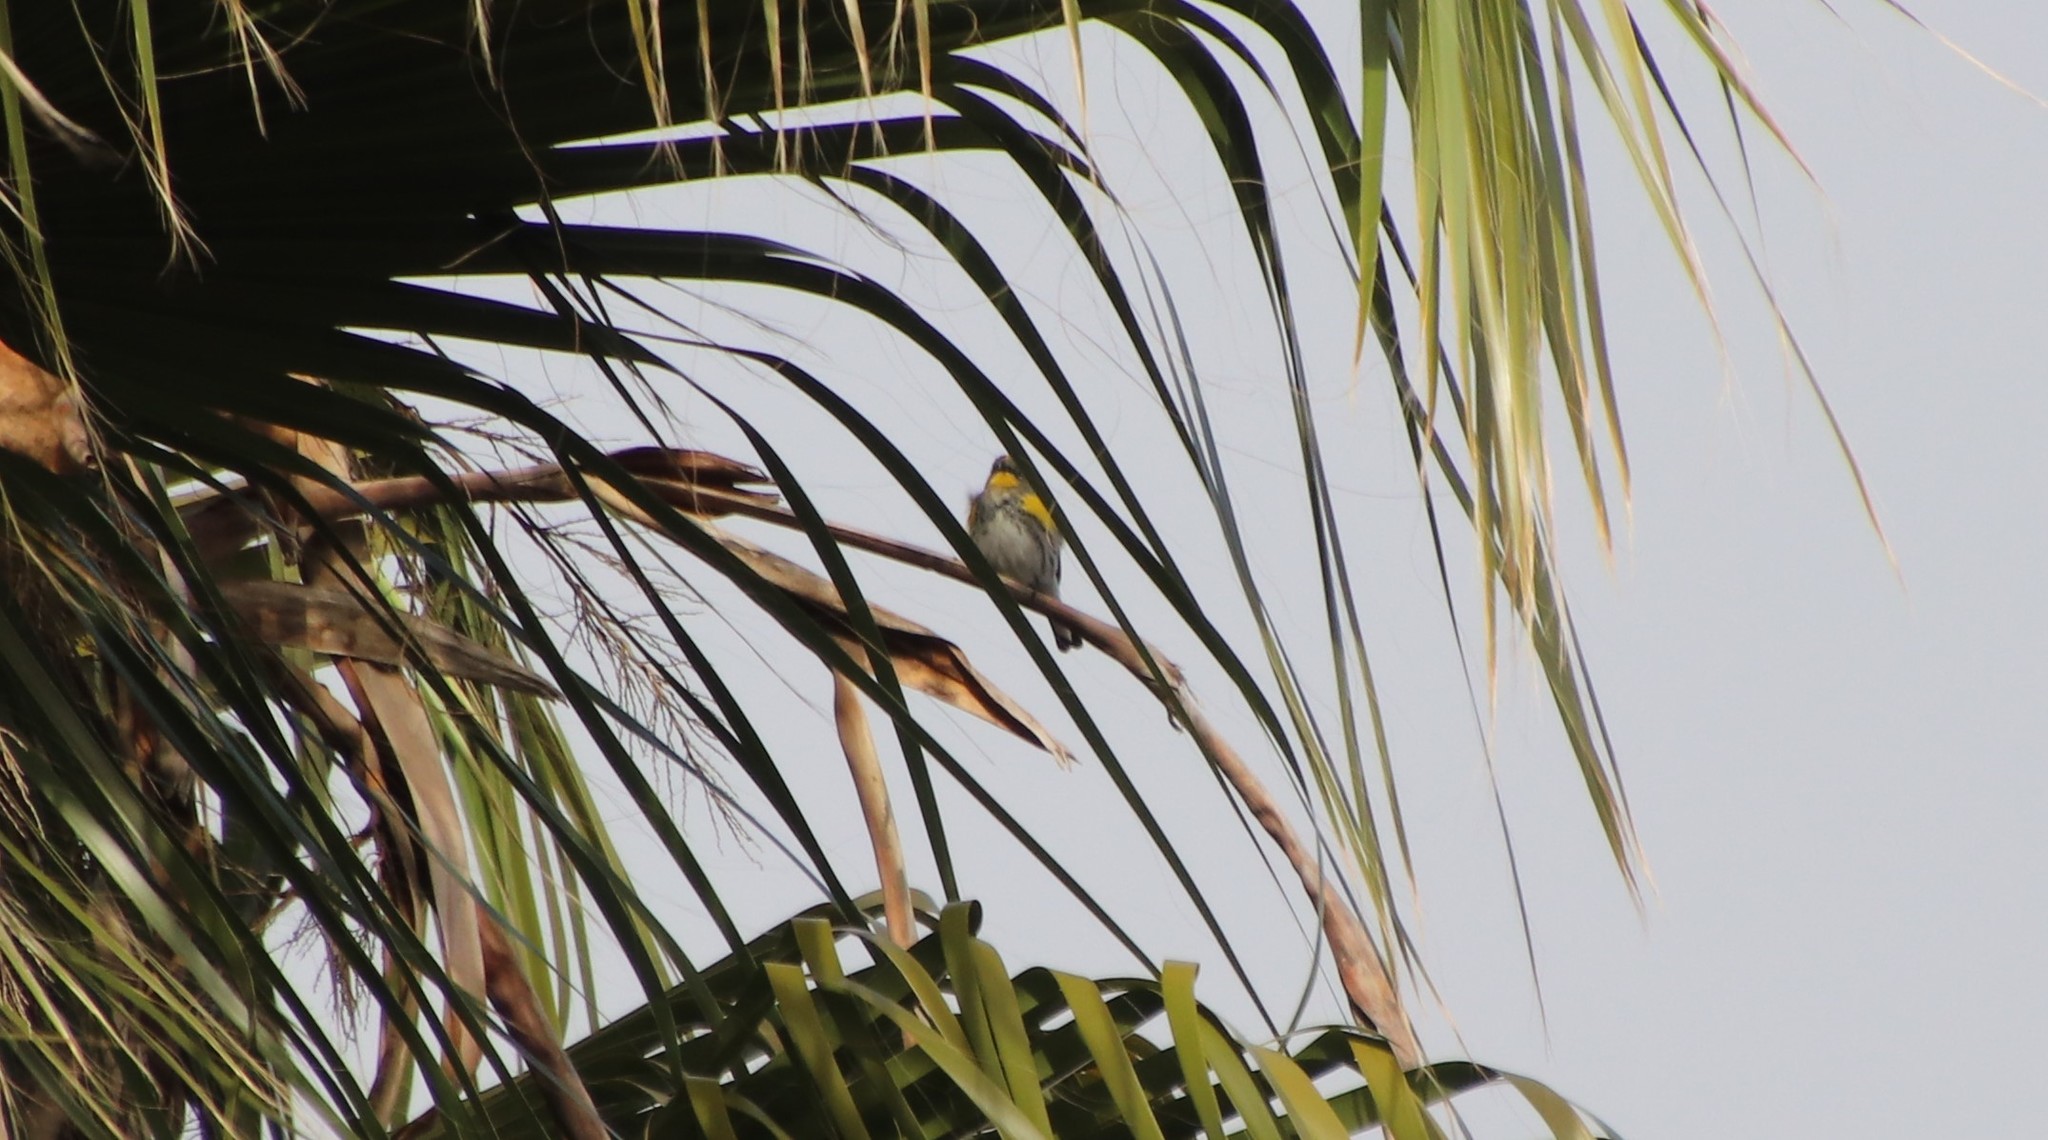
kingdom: Animalia
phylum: Chordata
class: Aves
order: Passeriformes
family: Parulidae
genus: Setophaga
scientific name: Setophaga auduboni
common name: Audubon's warbler
